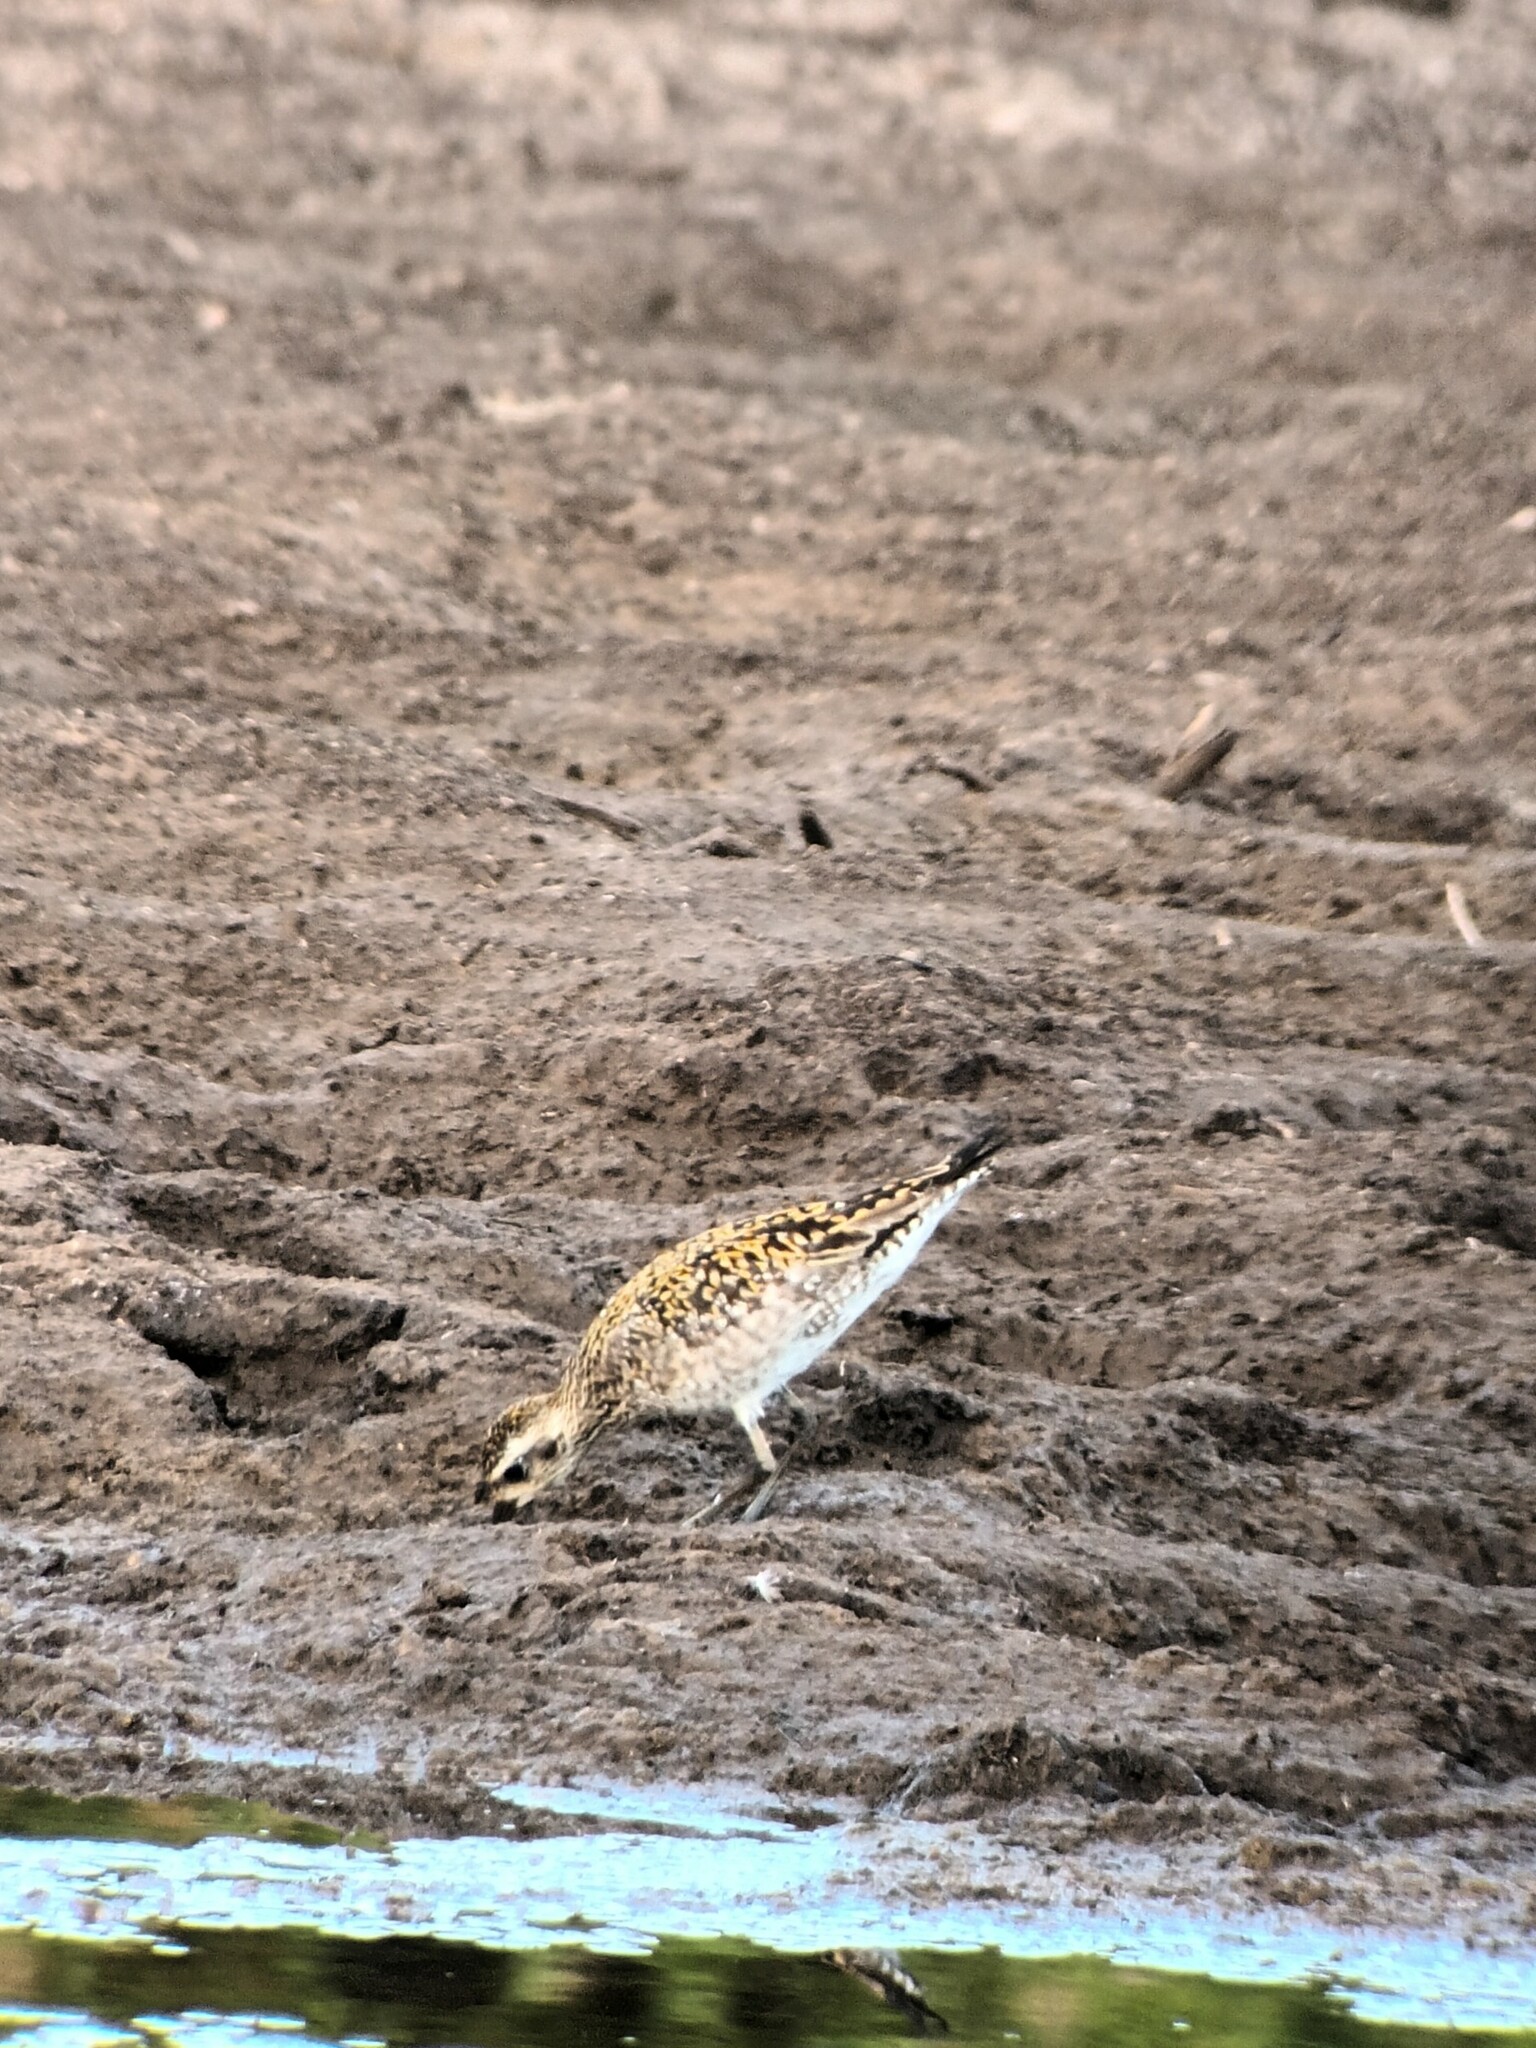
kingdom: Animalia
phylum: Chordata
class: Aves
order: Charadriiformes
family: Charadriidae
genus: Pluvialis
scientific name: Pluvialis fulva
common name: Pacific golden plover
